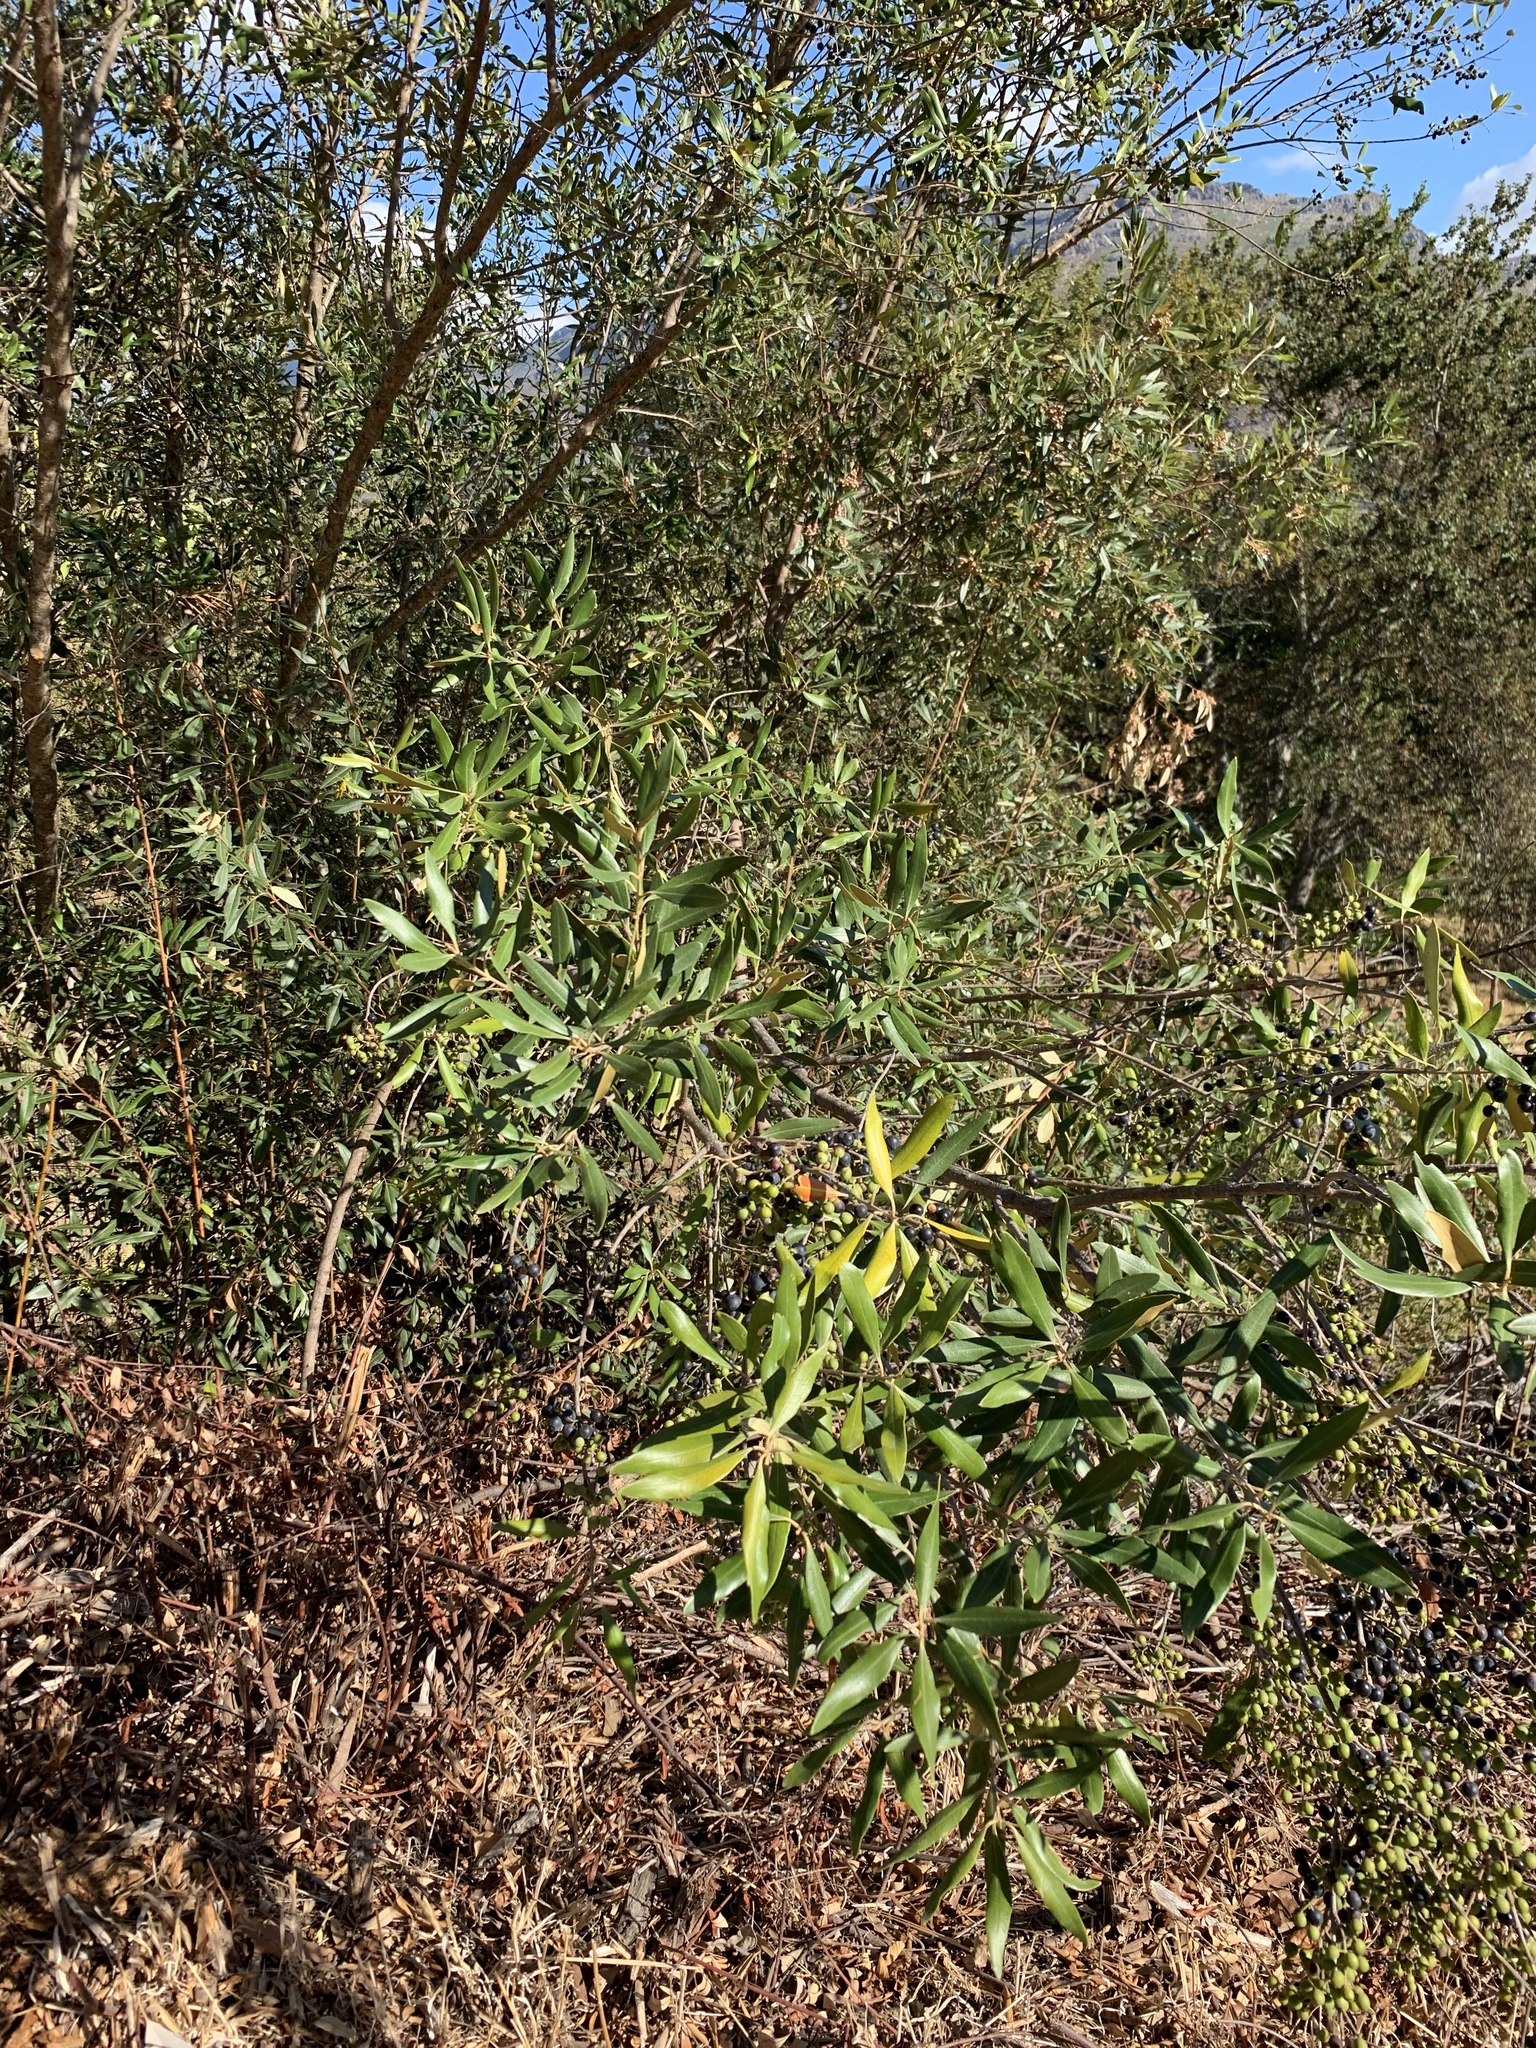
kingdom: Plantae
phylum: Tracheophyta
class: Magnoliopsida
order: Lamiales
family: Oleaceae
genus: Olea
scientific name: Olea europaea
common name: Olive
